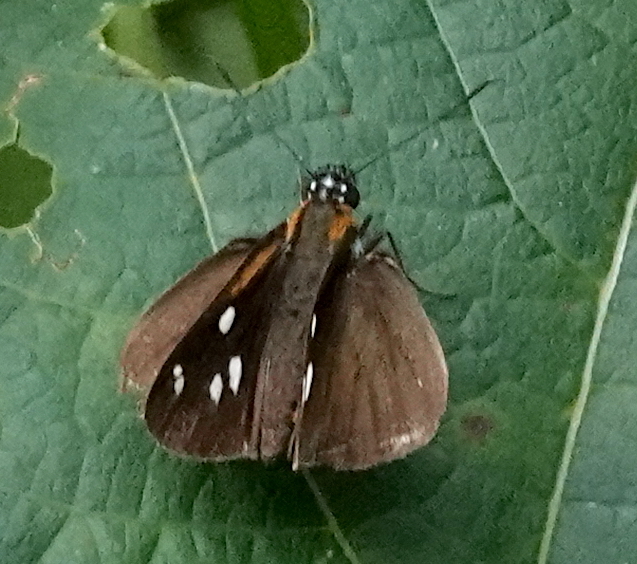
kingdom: Animalia
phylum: Arthropoda
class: Insecta
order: Lepidoptera
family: Hesperiidae
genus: Corra
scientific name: Corra
